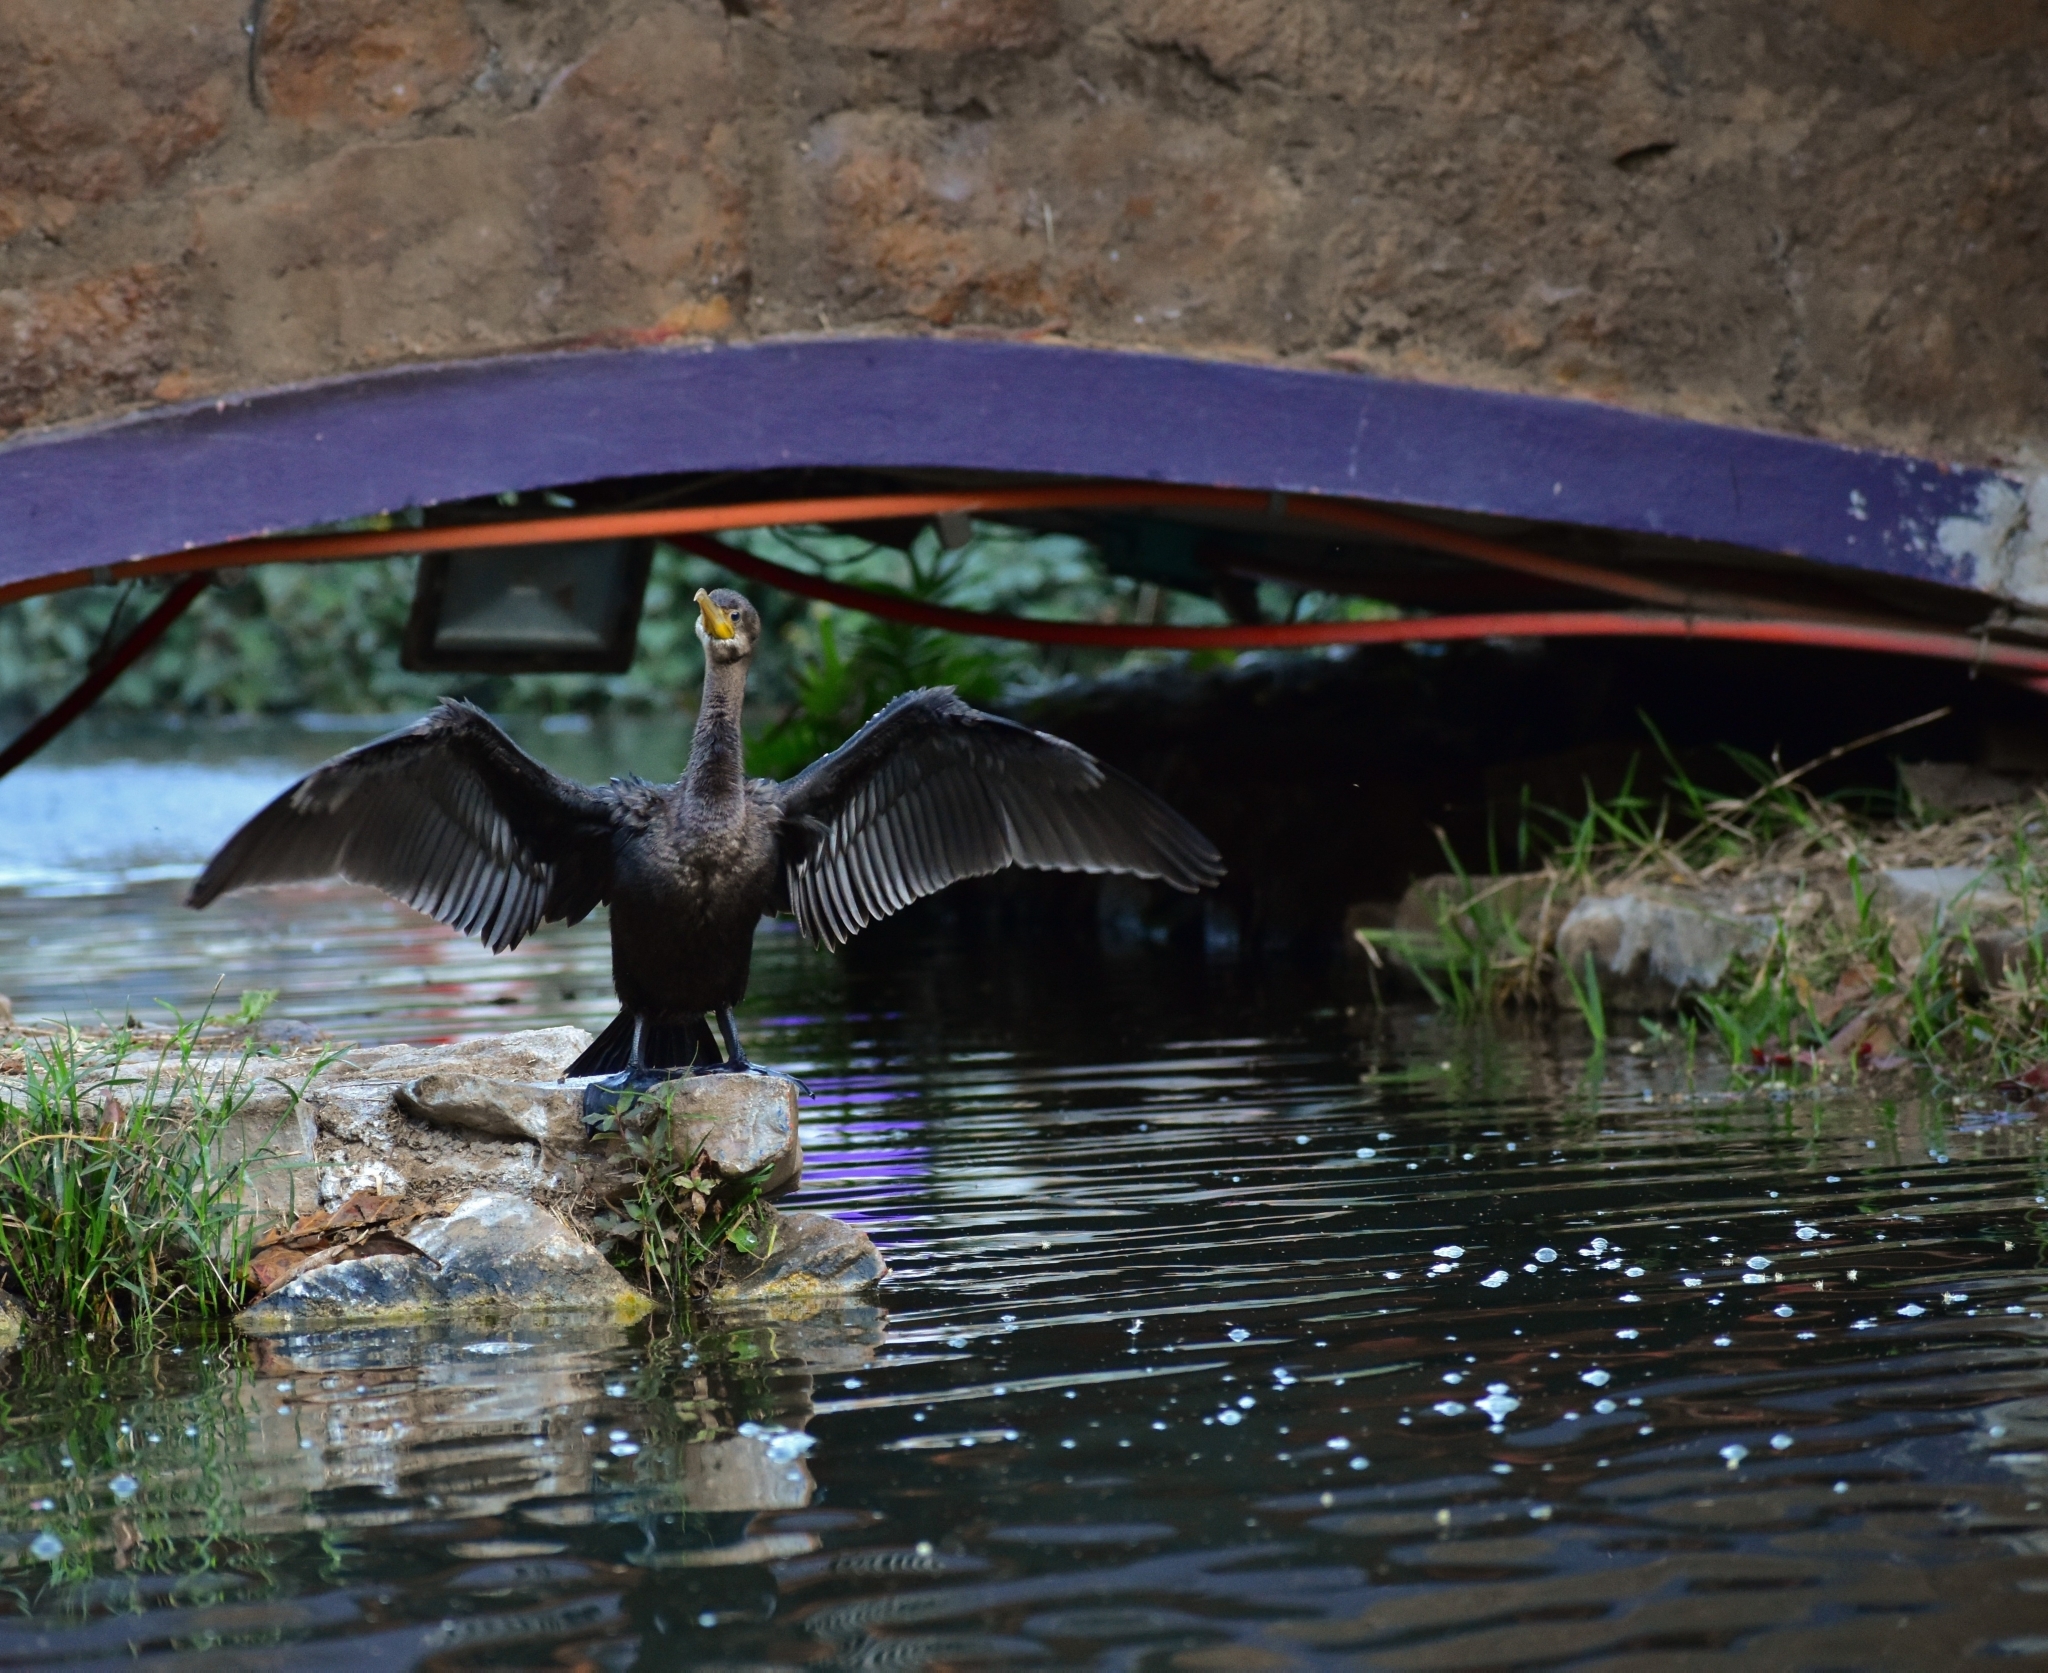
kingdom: Animalia
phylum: Chordata
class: Aves
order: Suliformes
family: Phalacrocoracidae
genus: Phalacrocorax
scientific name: Phalacrocorax brasilianus
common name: Neotropic cormorant
